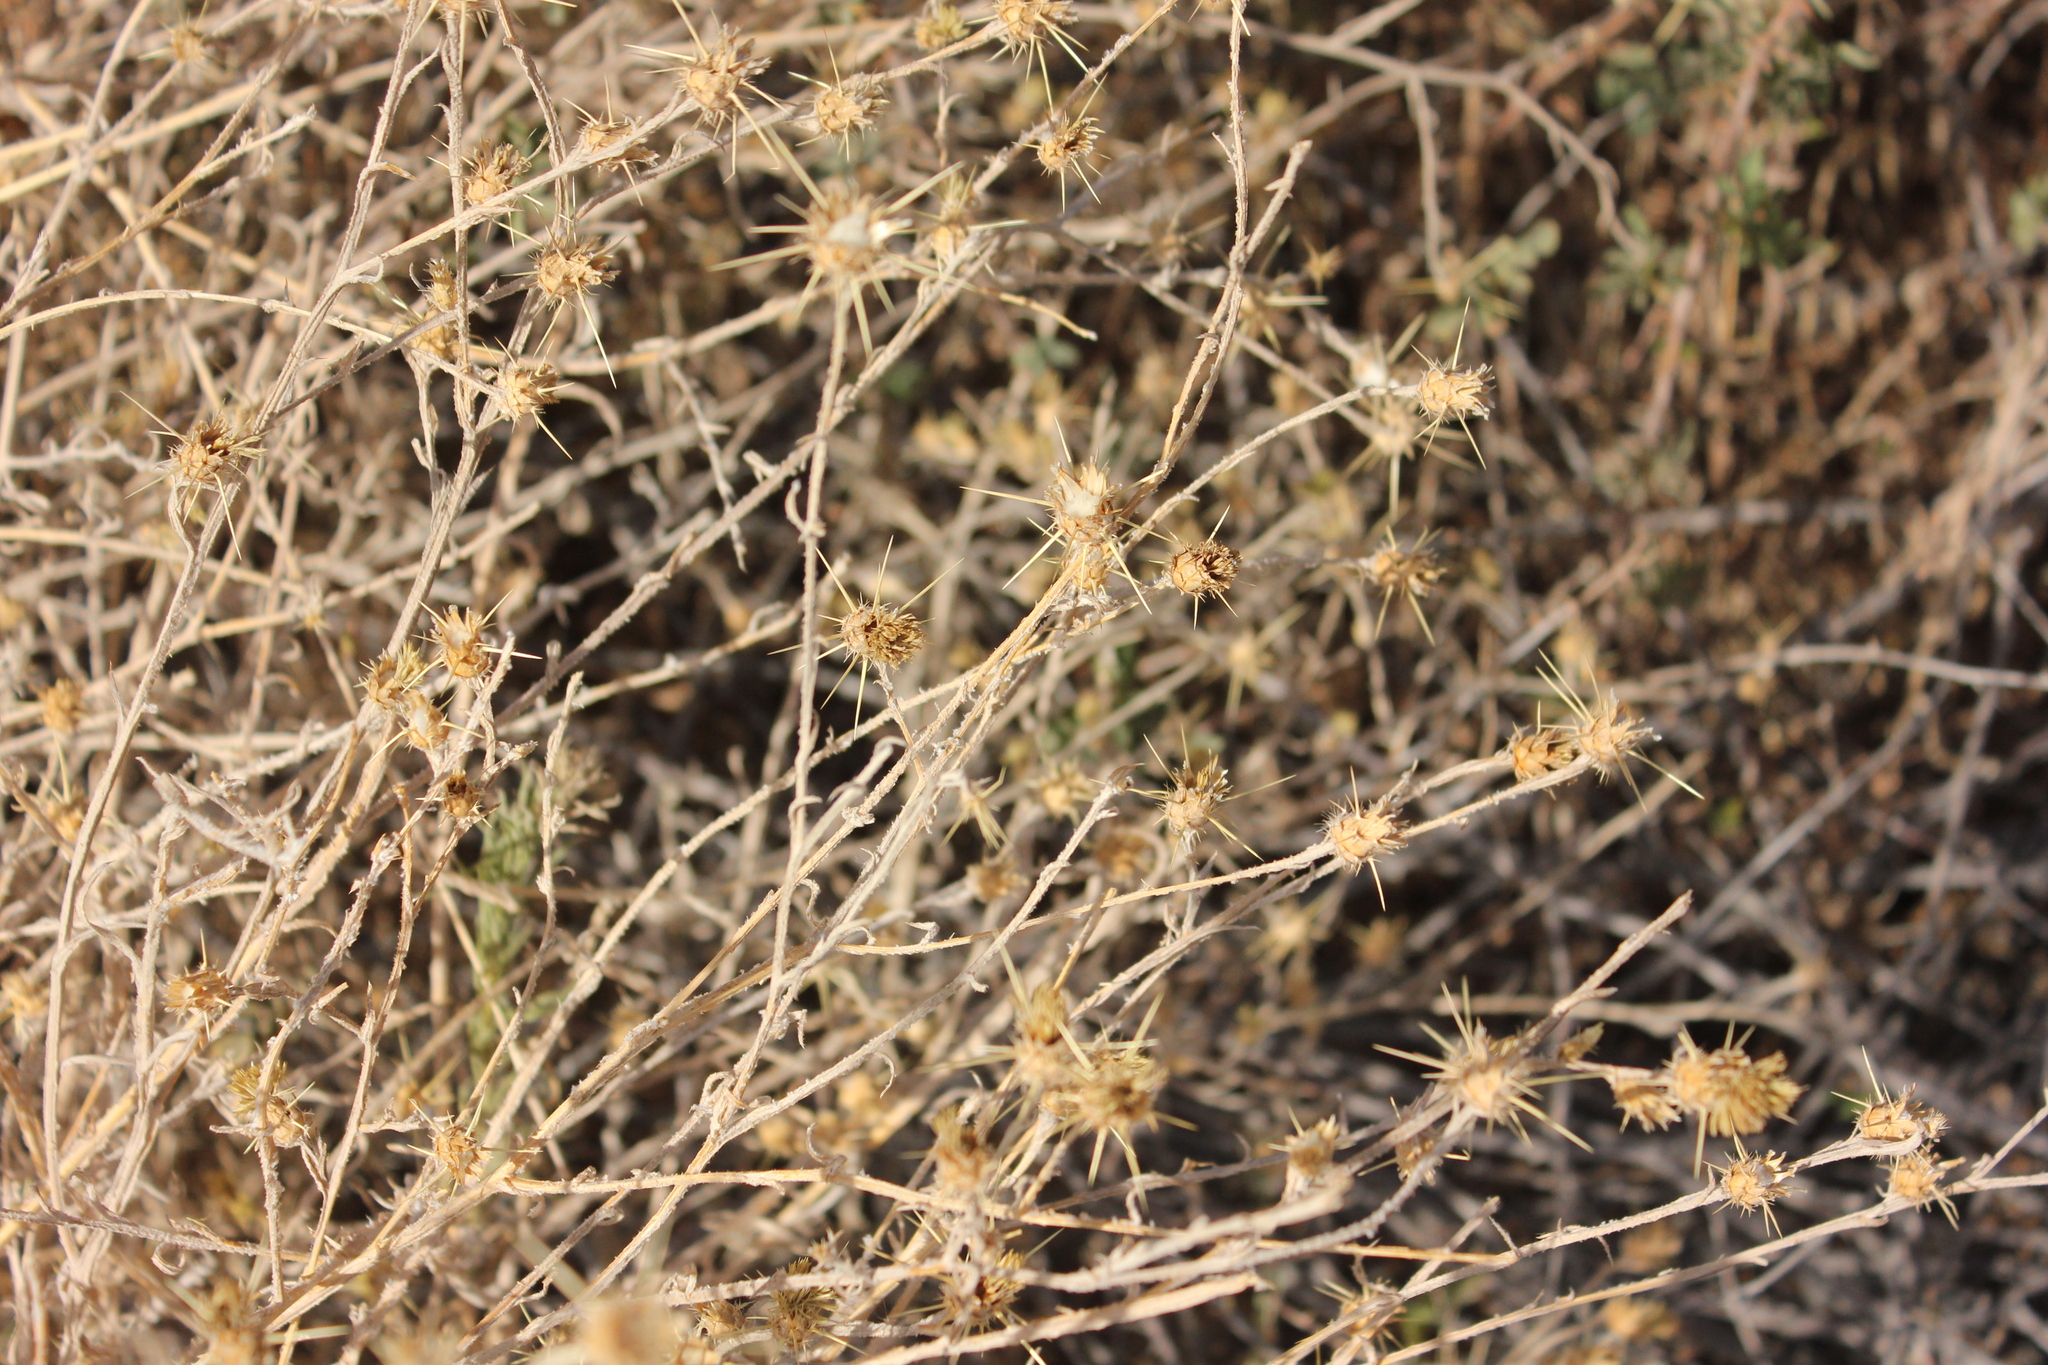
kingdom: Plantae
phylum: Tracheophyta
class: Magnoliopsida
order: Asterales
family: Asteraceae
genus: Centaurea
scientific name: Centaurea solstitialis
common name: Yellow star-thistle
